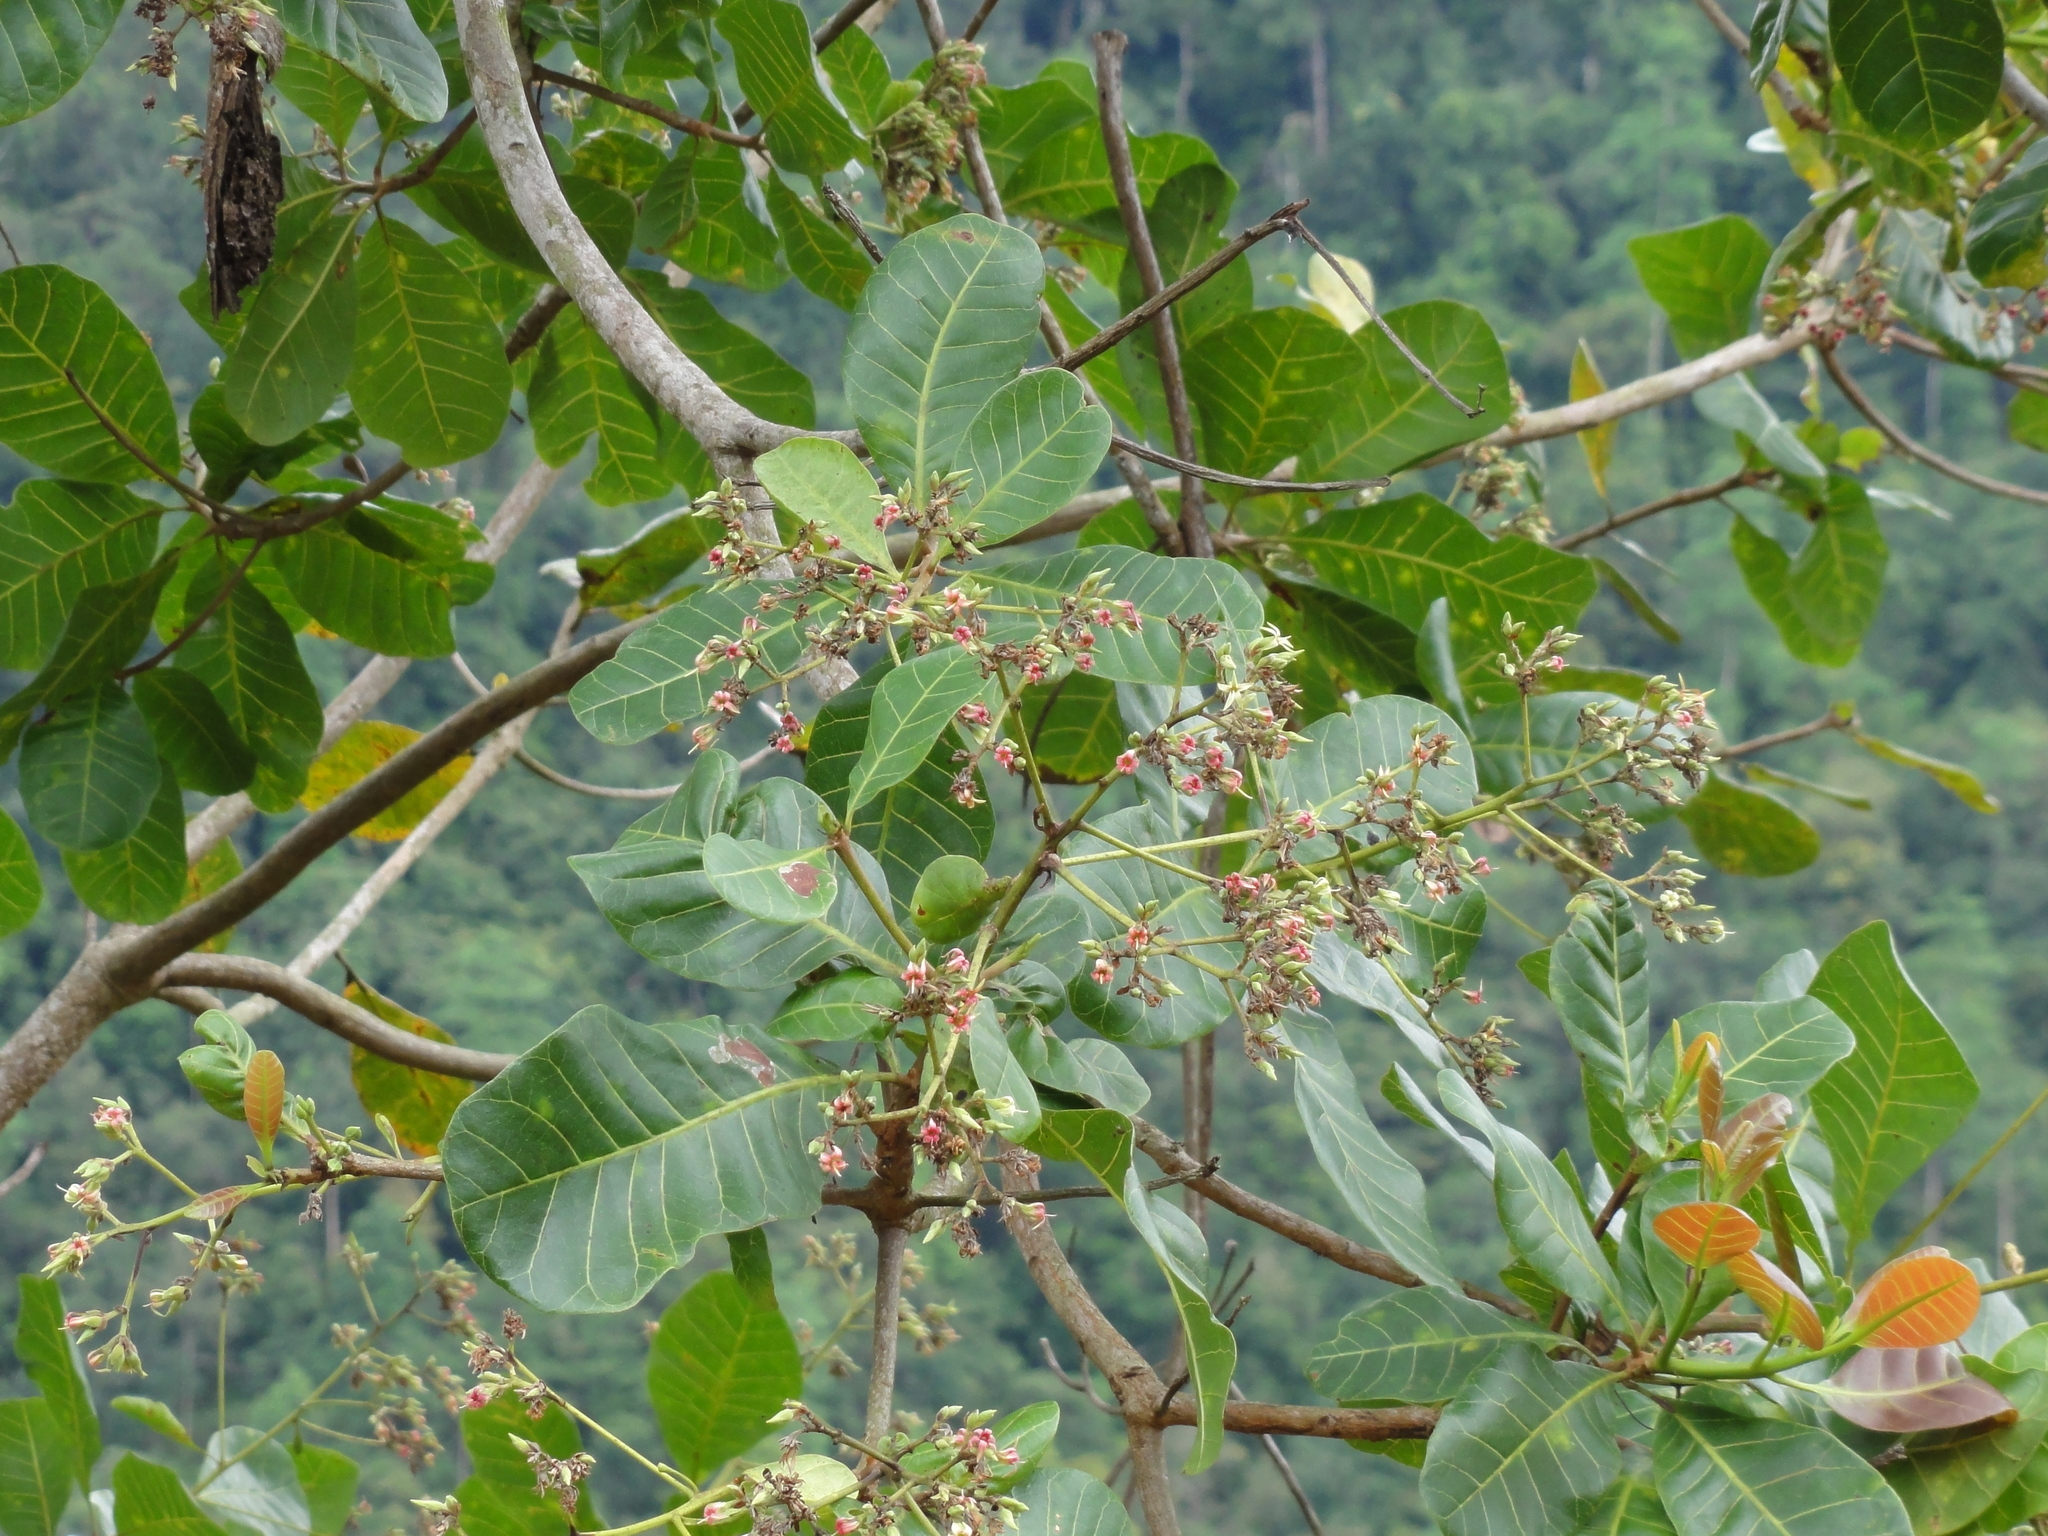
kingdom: Plantae
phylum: Tracheophyta
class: Magnoliopsida
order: Sapindales
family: Anacardiaceae
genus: Anacardium
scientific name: Anacardium occidentale
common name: Cashew
